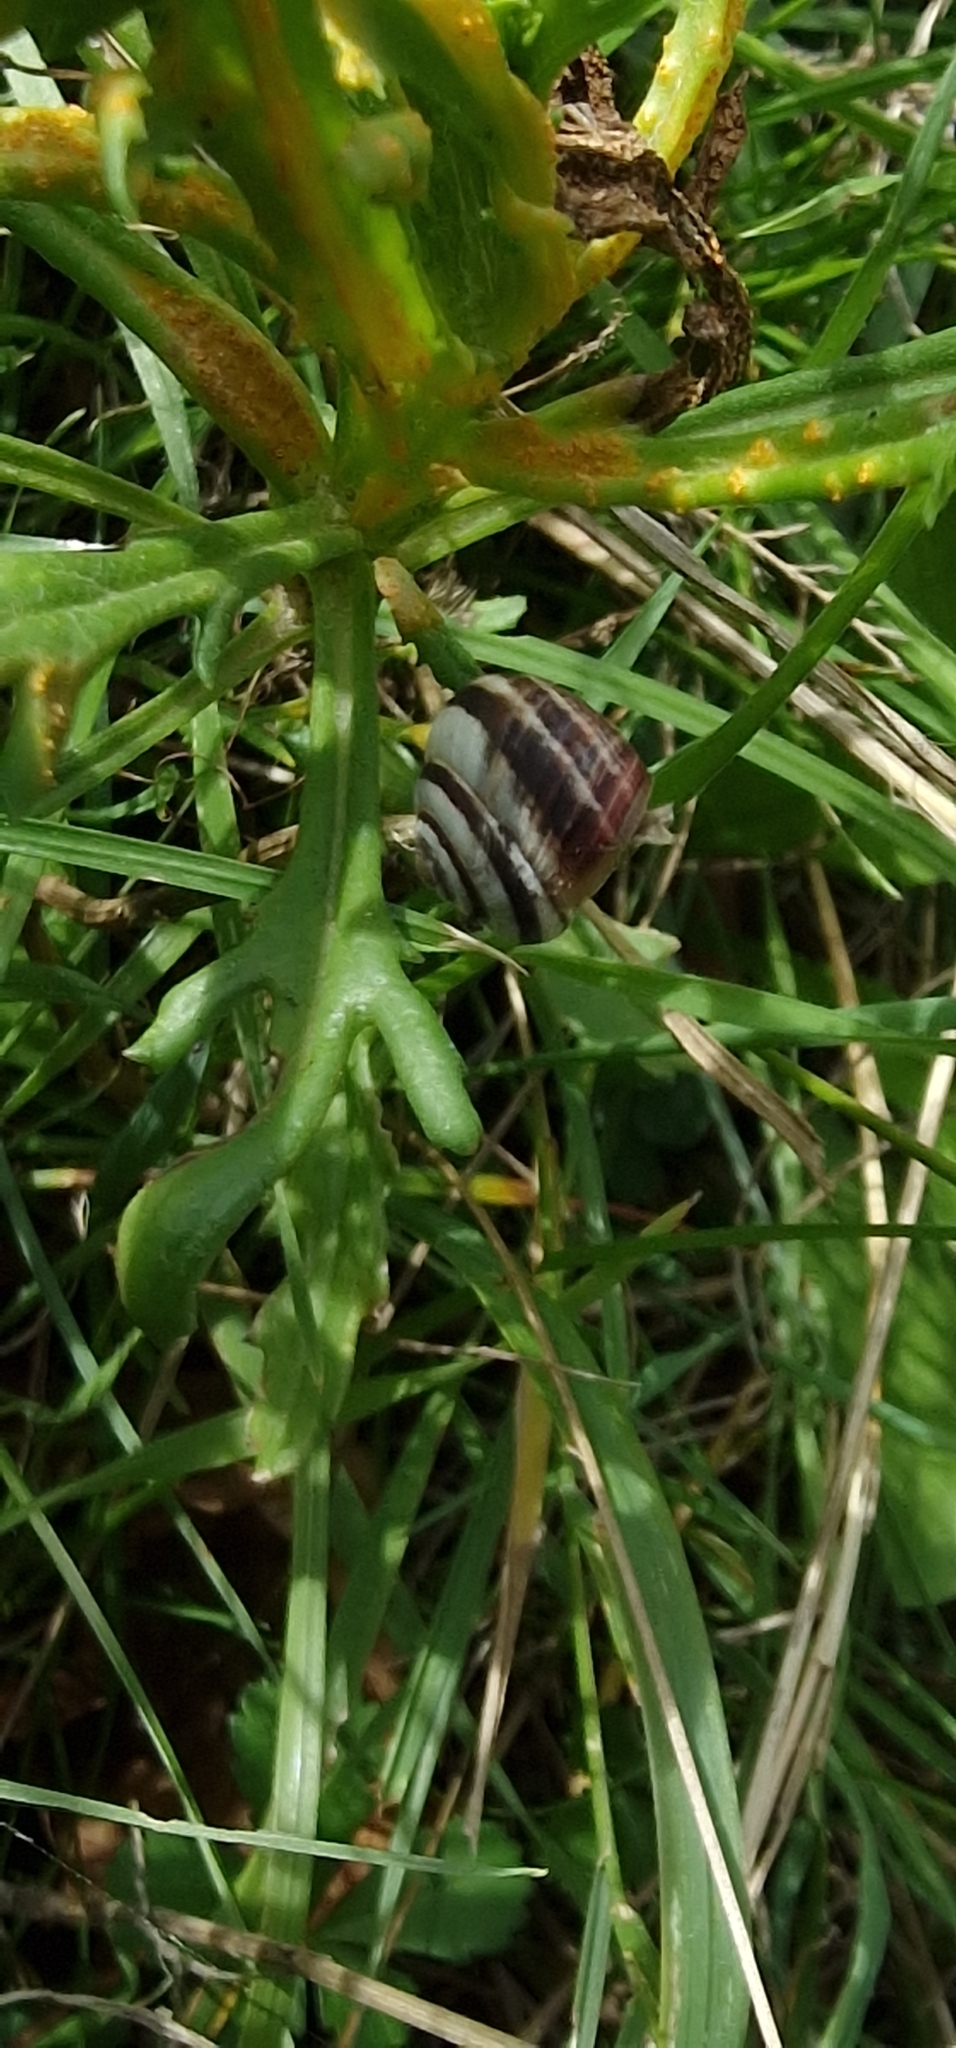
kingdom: Animalia
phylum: Mollusca
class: Gastropoda
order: Stylommatophora
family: Geomitridae
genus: Cernuella
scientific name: Cernuella virgata
